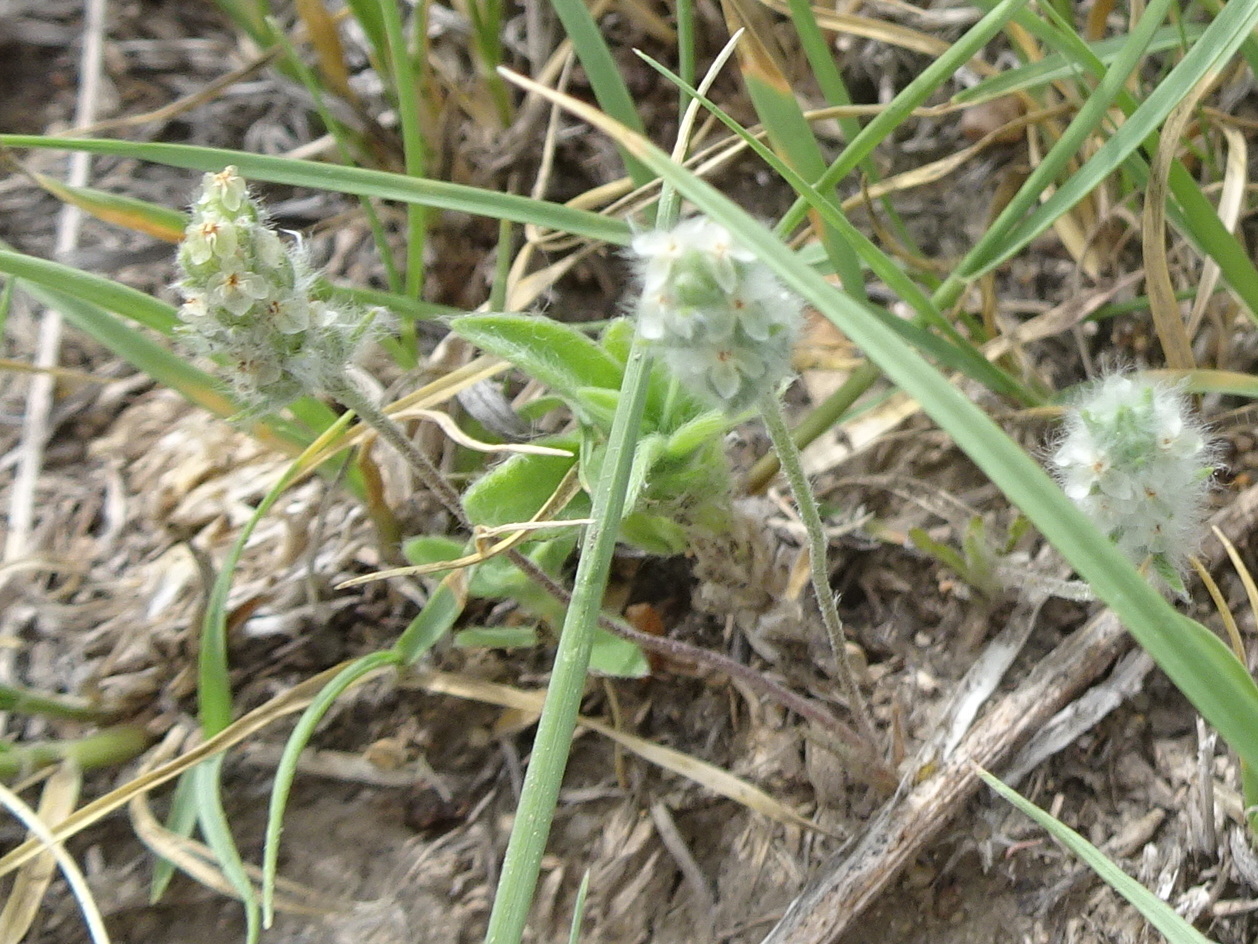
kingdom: Plantae
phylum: Tracheophyta
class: Magnoliopsida
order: Lamiales
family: Plantaginaceae
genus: Plantago
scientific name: Plantago patagonica
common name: Patagonia indian-wheat
